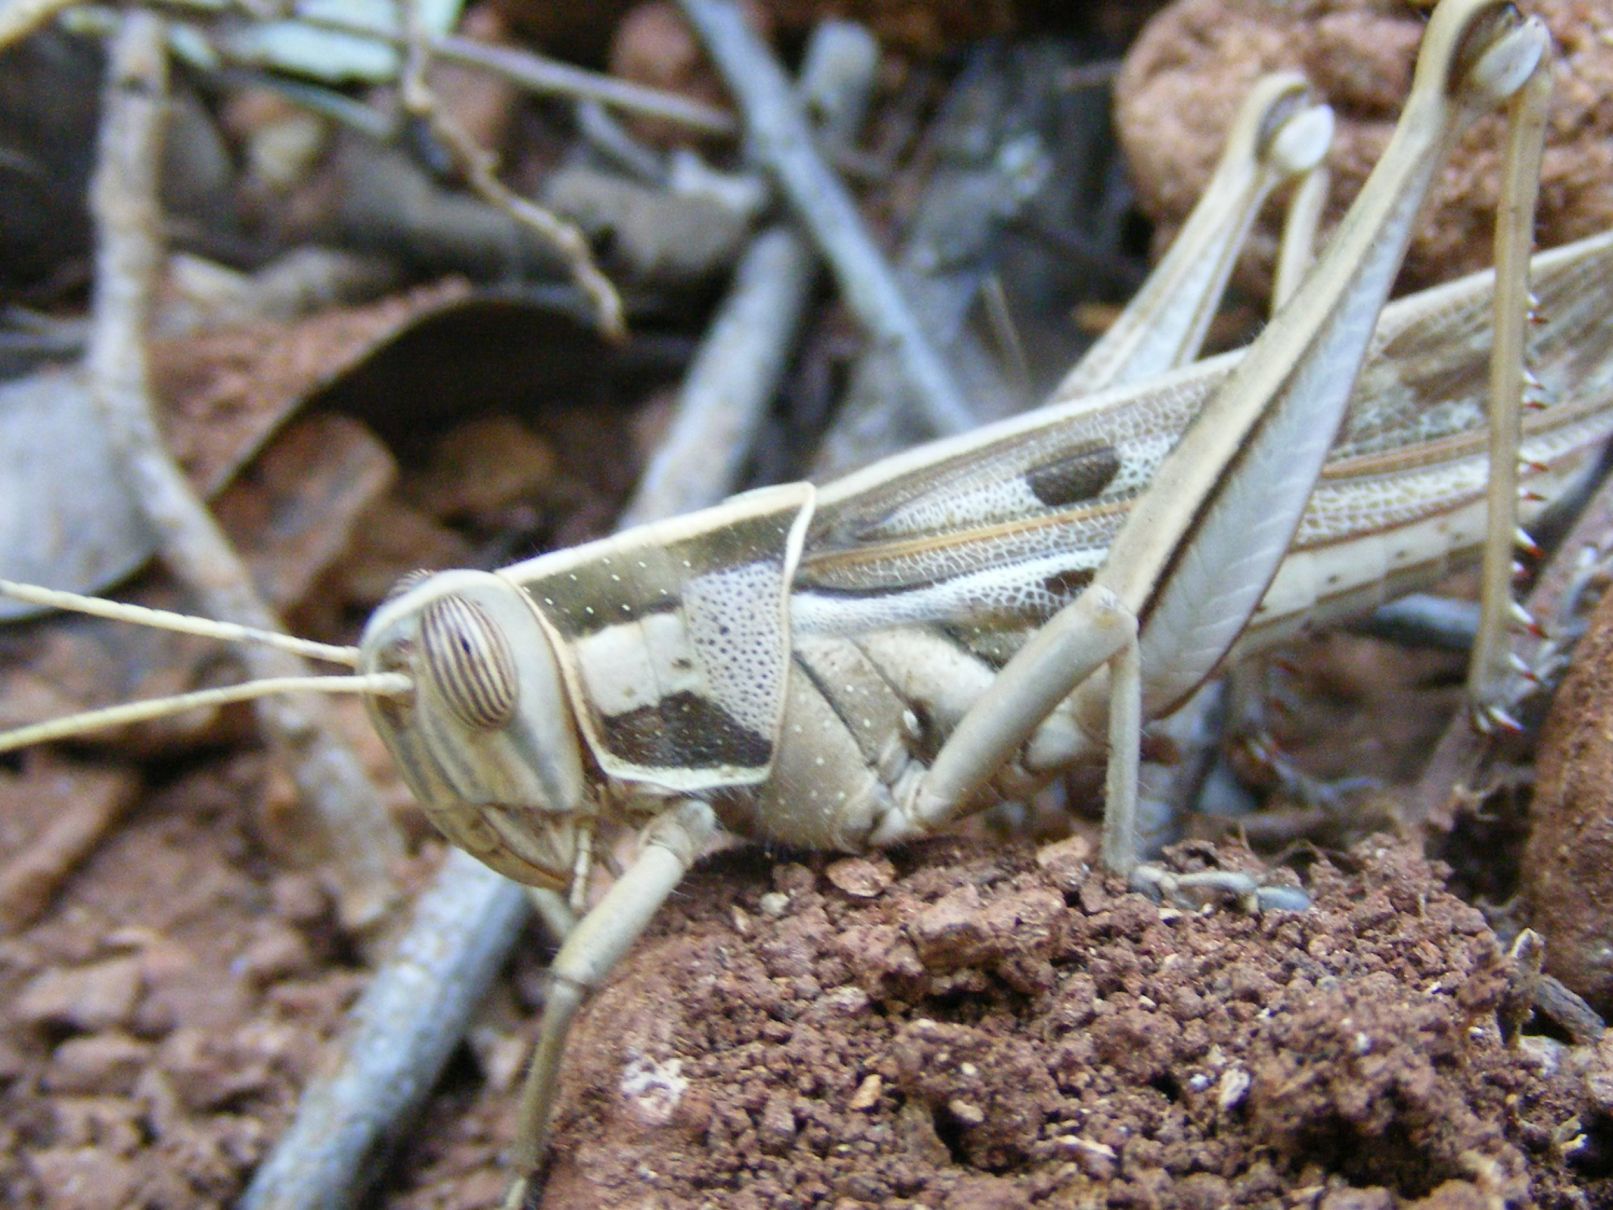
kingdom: Animalia
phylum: Arthropoda
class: Insecta
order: Orthoptera
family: Acrididae
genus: Cyrtacanthacris
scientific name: Cyrtacanthacris tatarica
